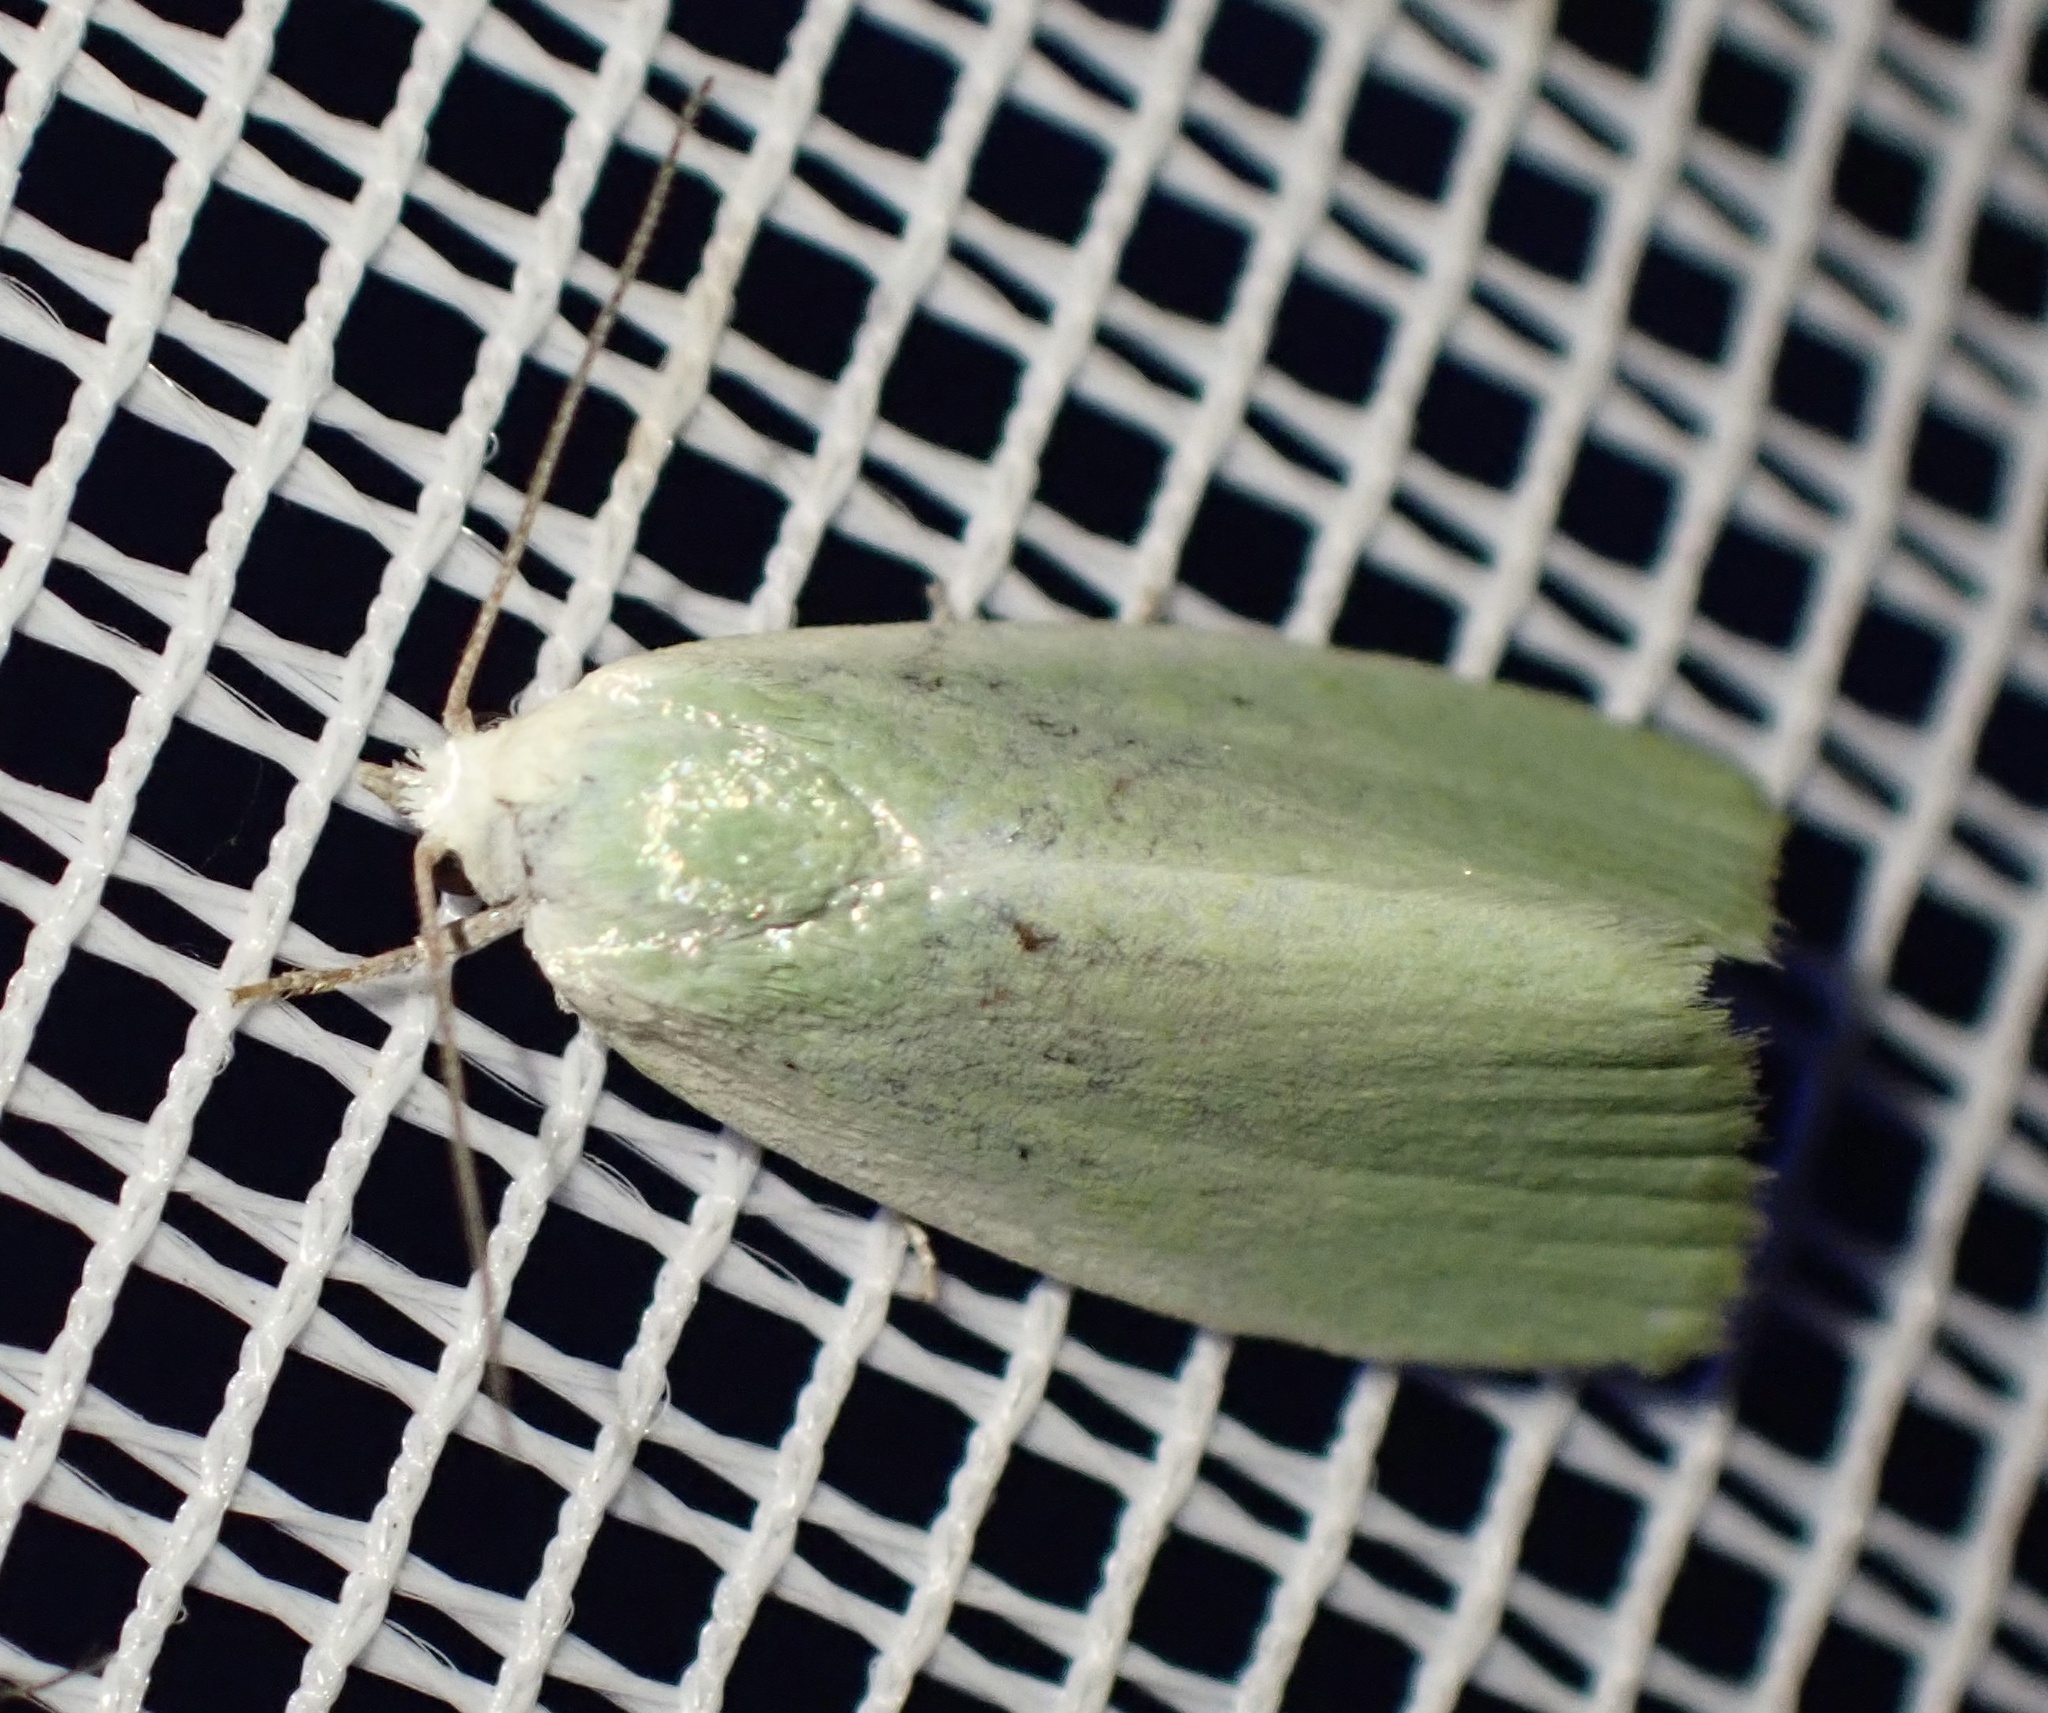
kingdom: Animalia
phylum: Arthropoda
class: Insecta
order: Lepidoptera
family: Nolidae
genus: Earias
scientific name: Earias clorana
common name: Cream-bordered green pea
